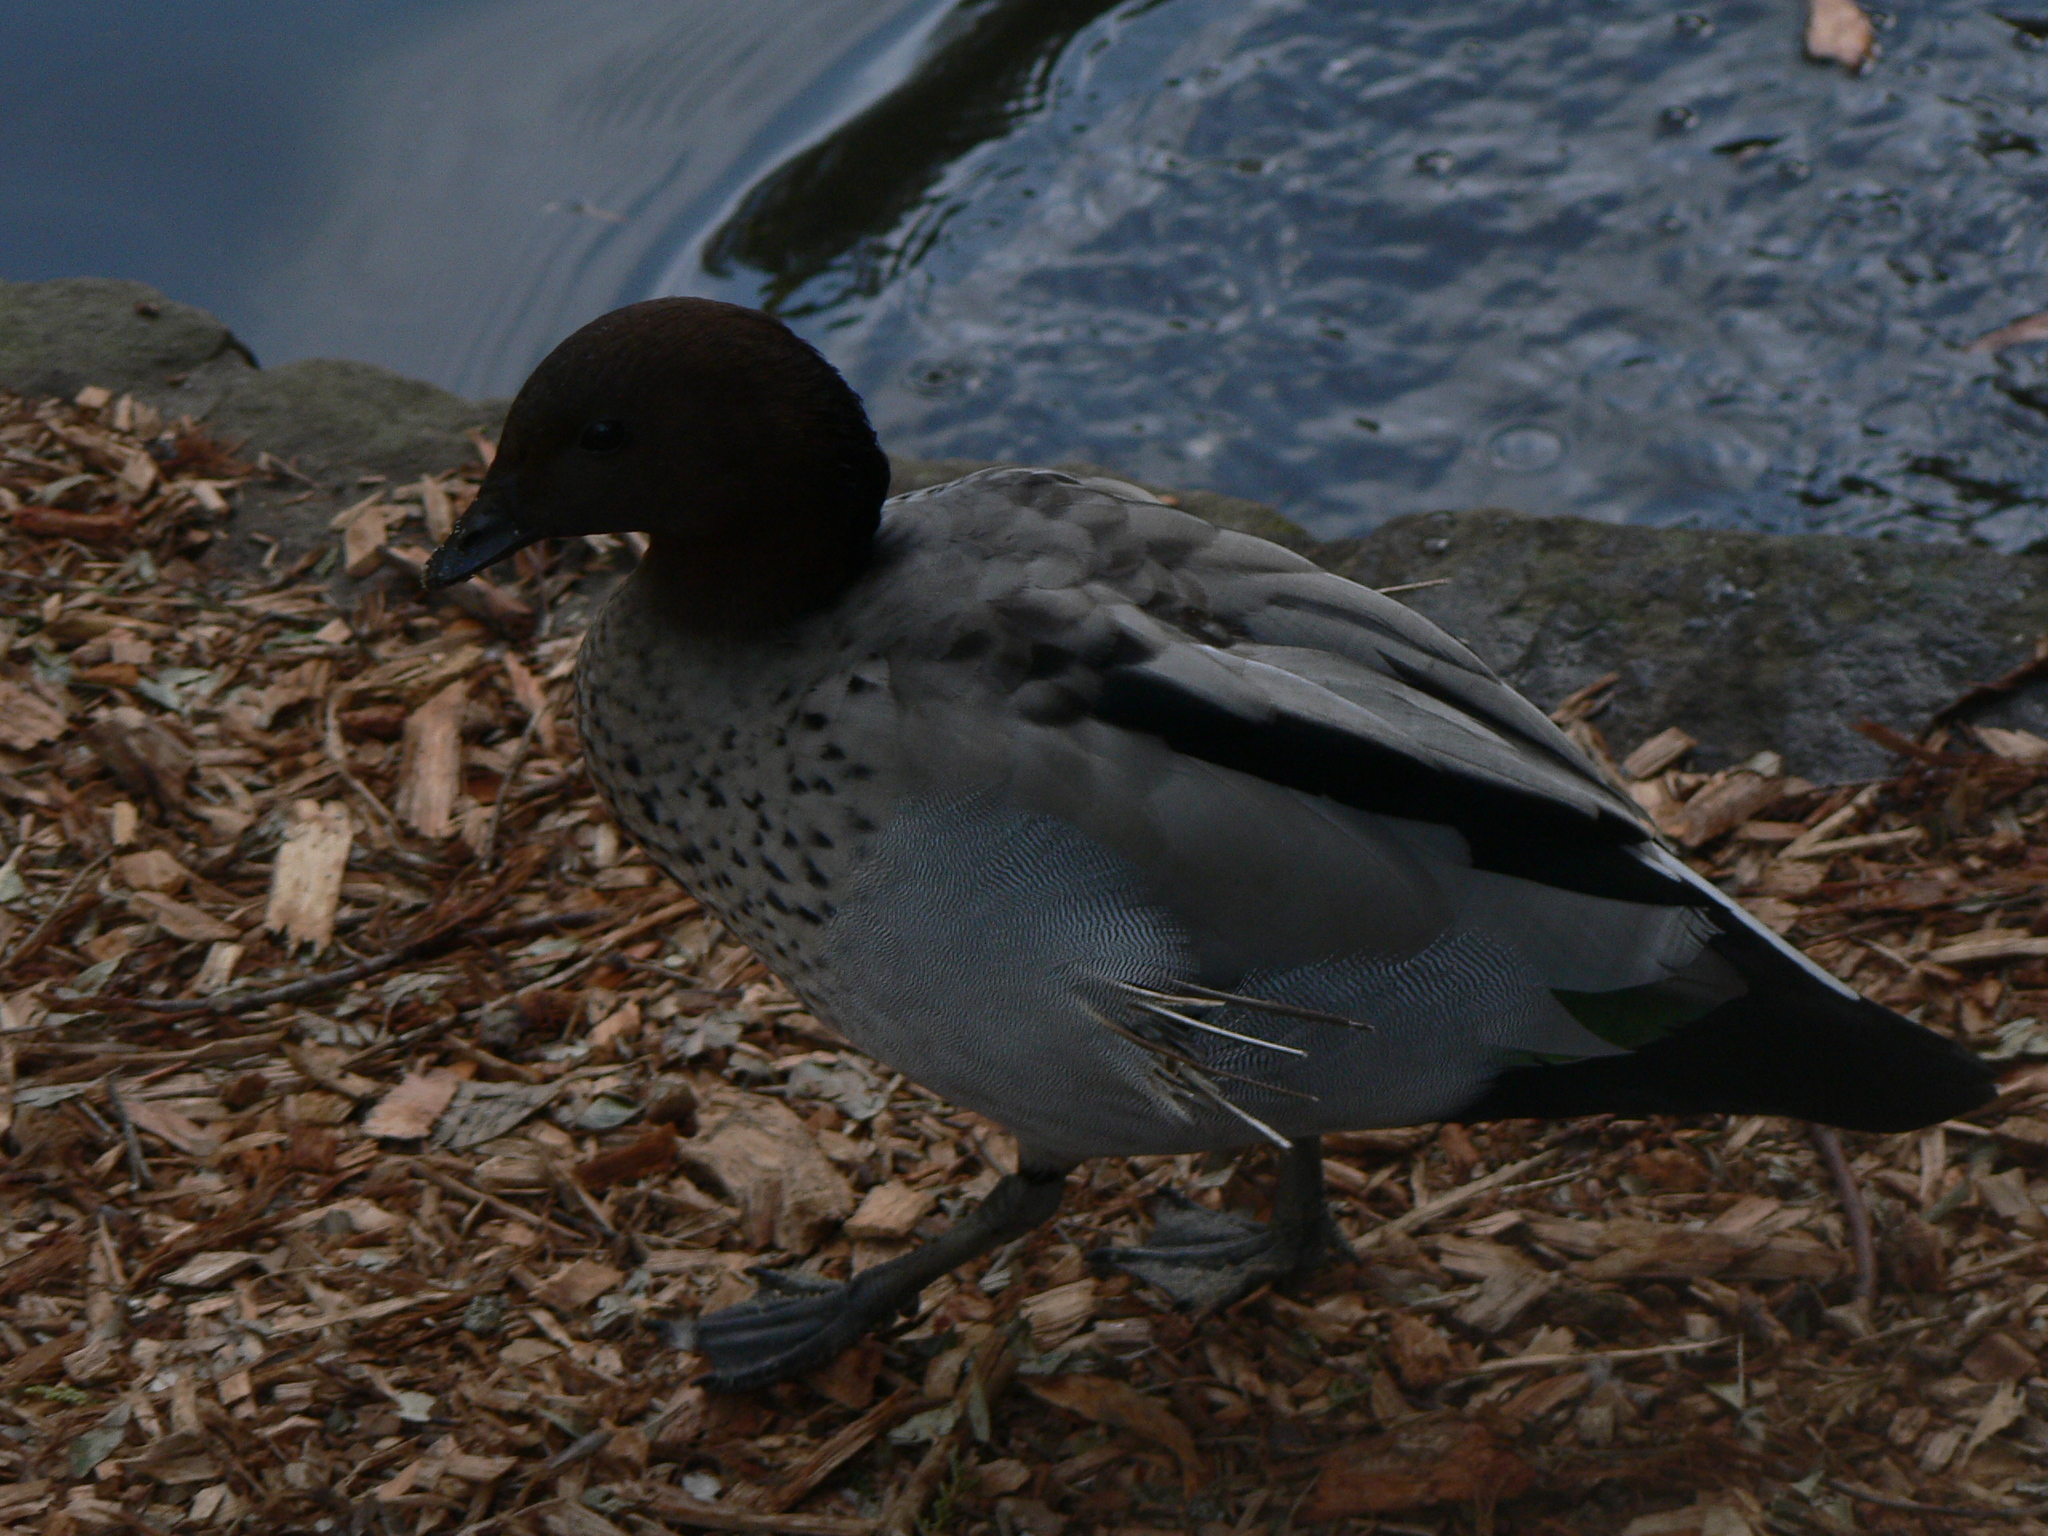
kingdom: Animalia
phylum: Chordata
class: Aves
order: Anseriformes
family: Anatidae
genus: Chenonetta
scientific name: Chenonetta jubata
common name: Maned duck
